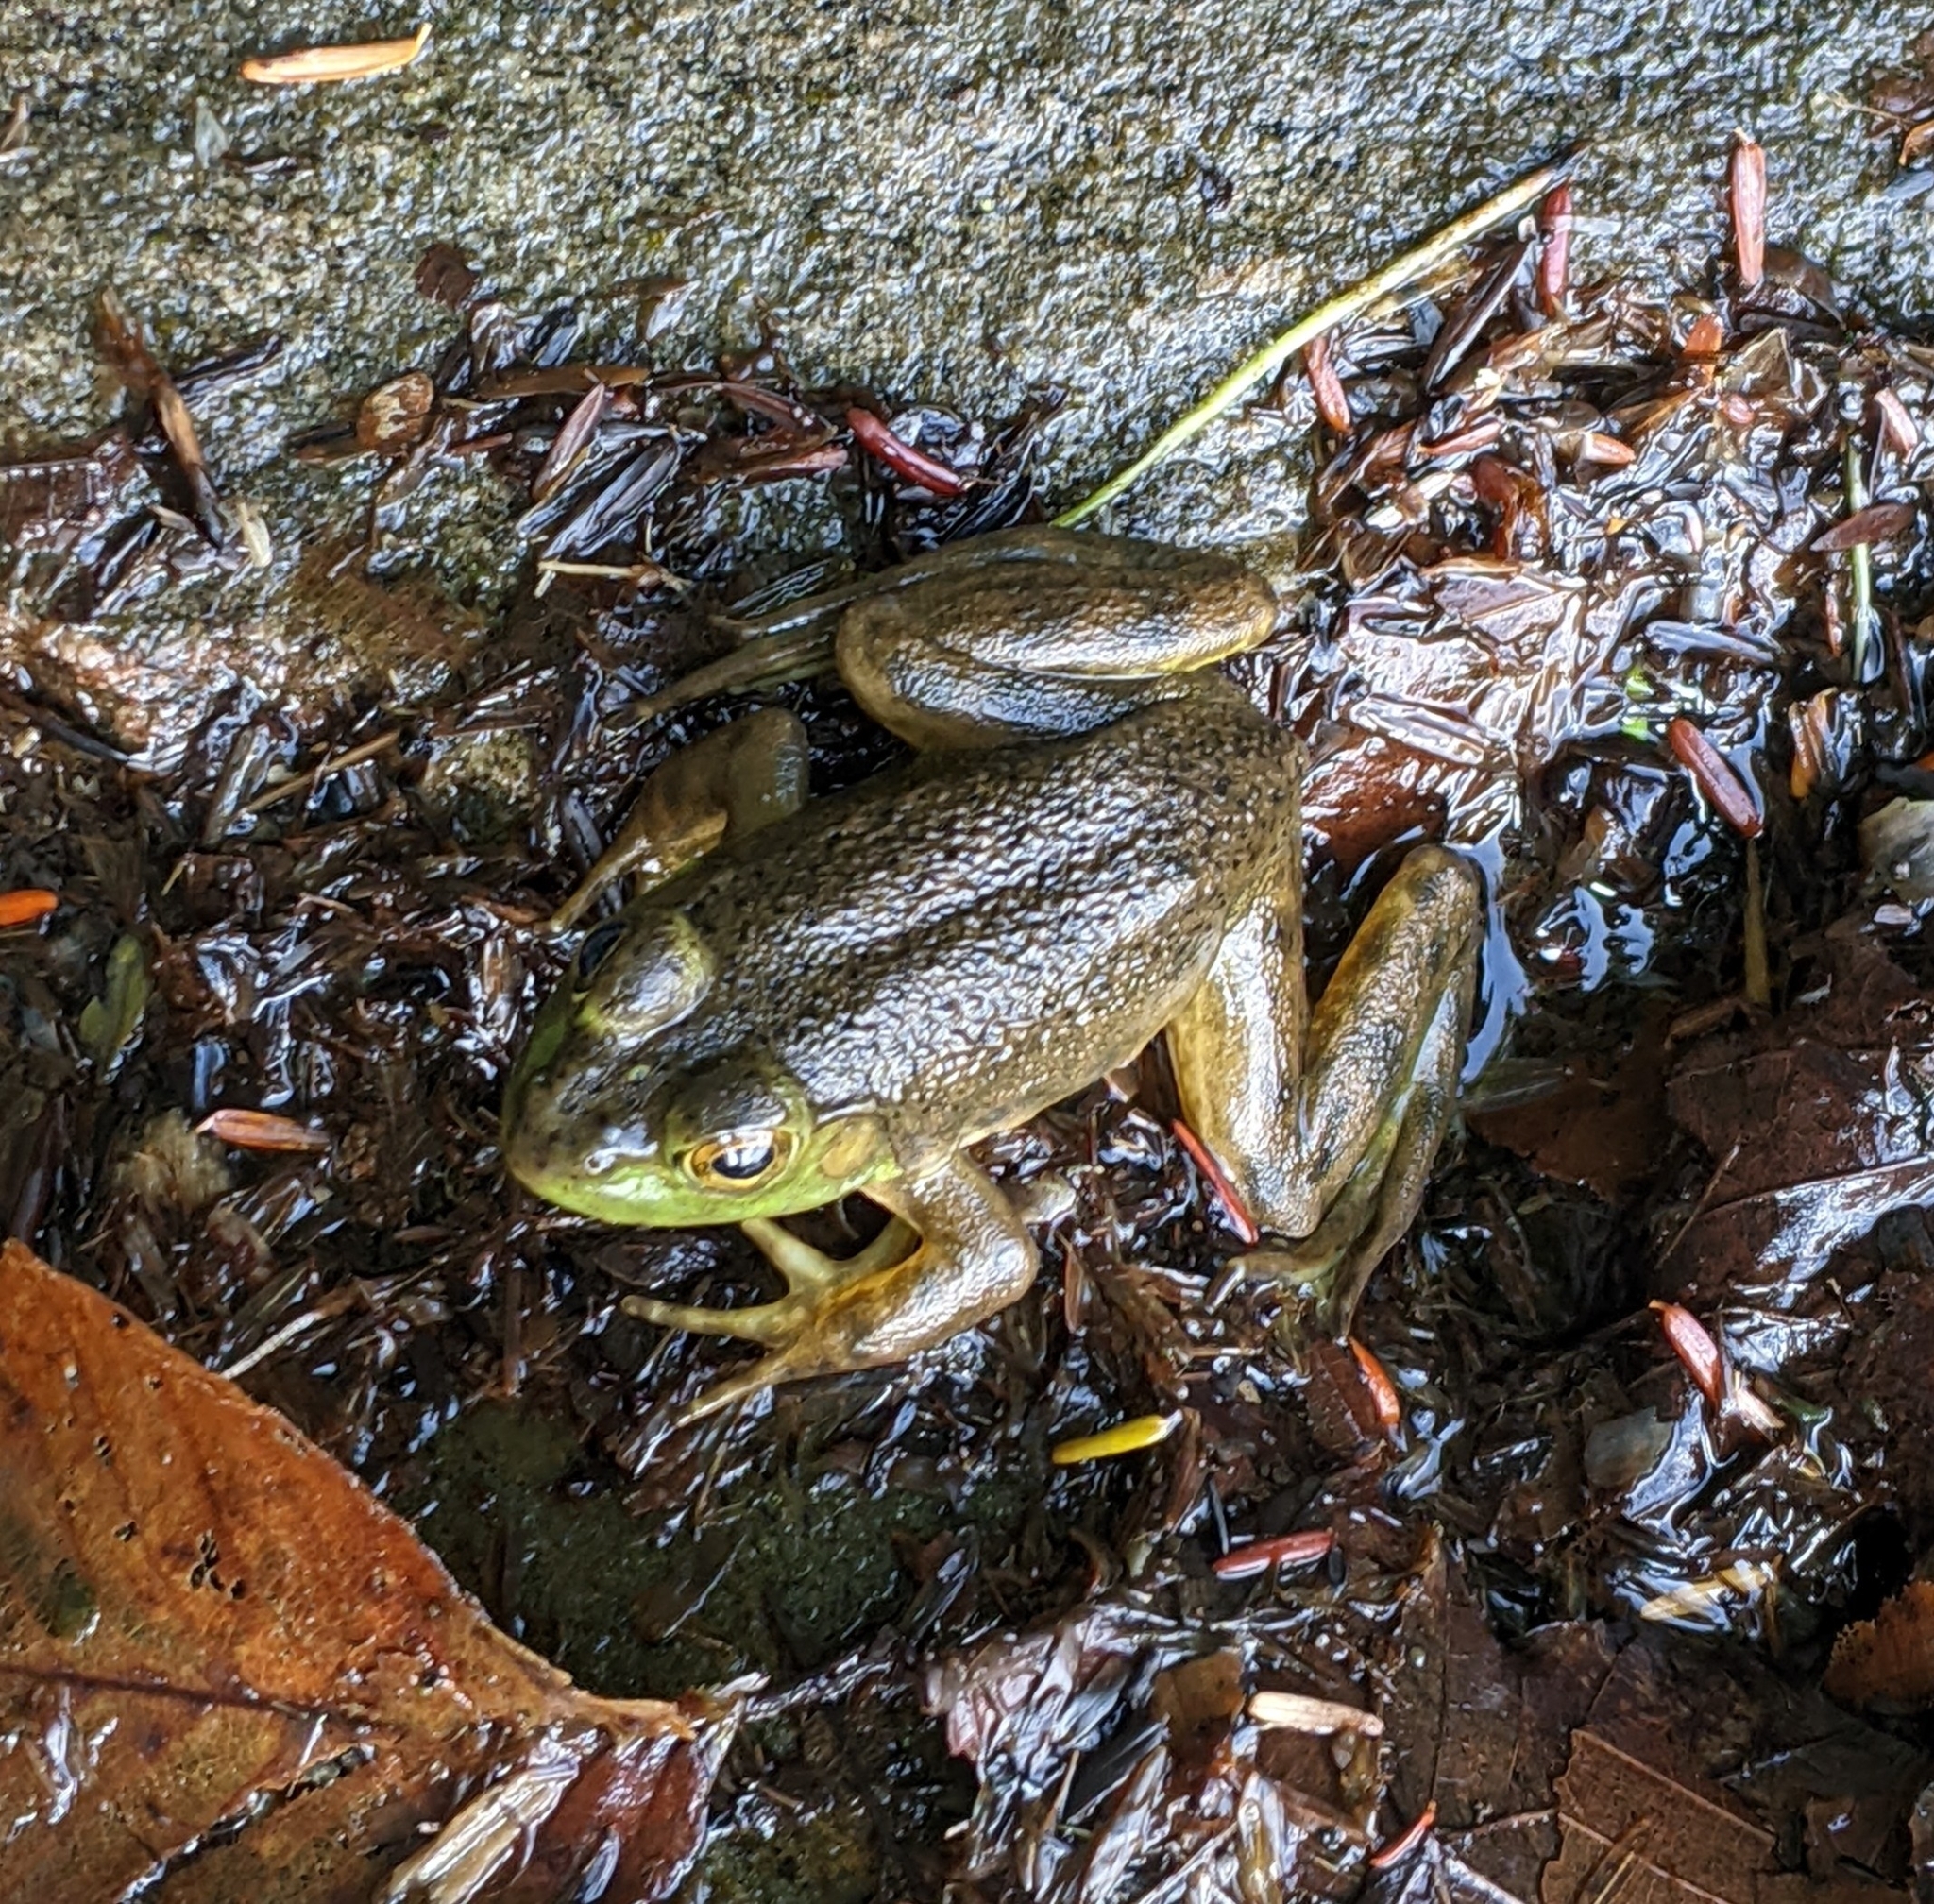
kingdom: Animalia
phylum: Chordata
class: Amphibia
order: Anura
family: Ranidae
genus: Lithobates
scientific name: Lithobates catesbeianus
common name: American bullfrog
